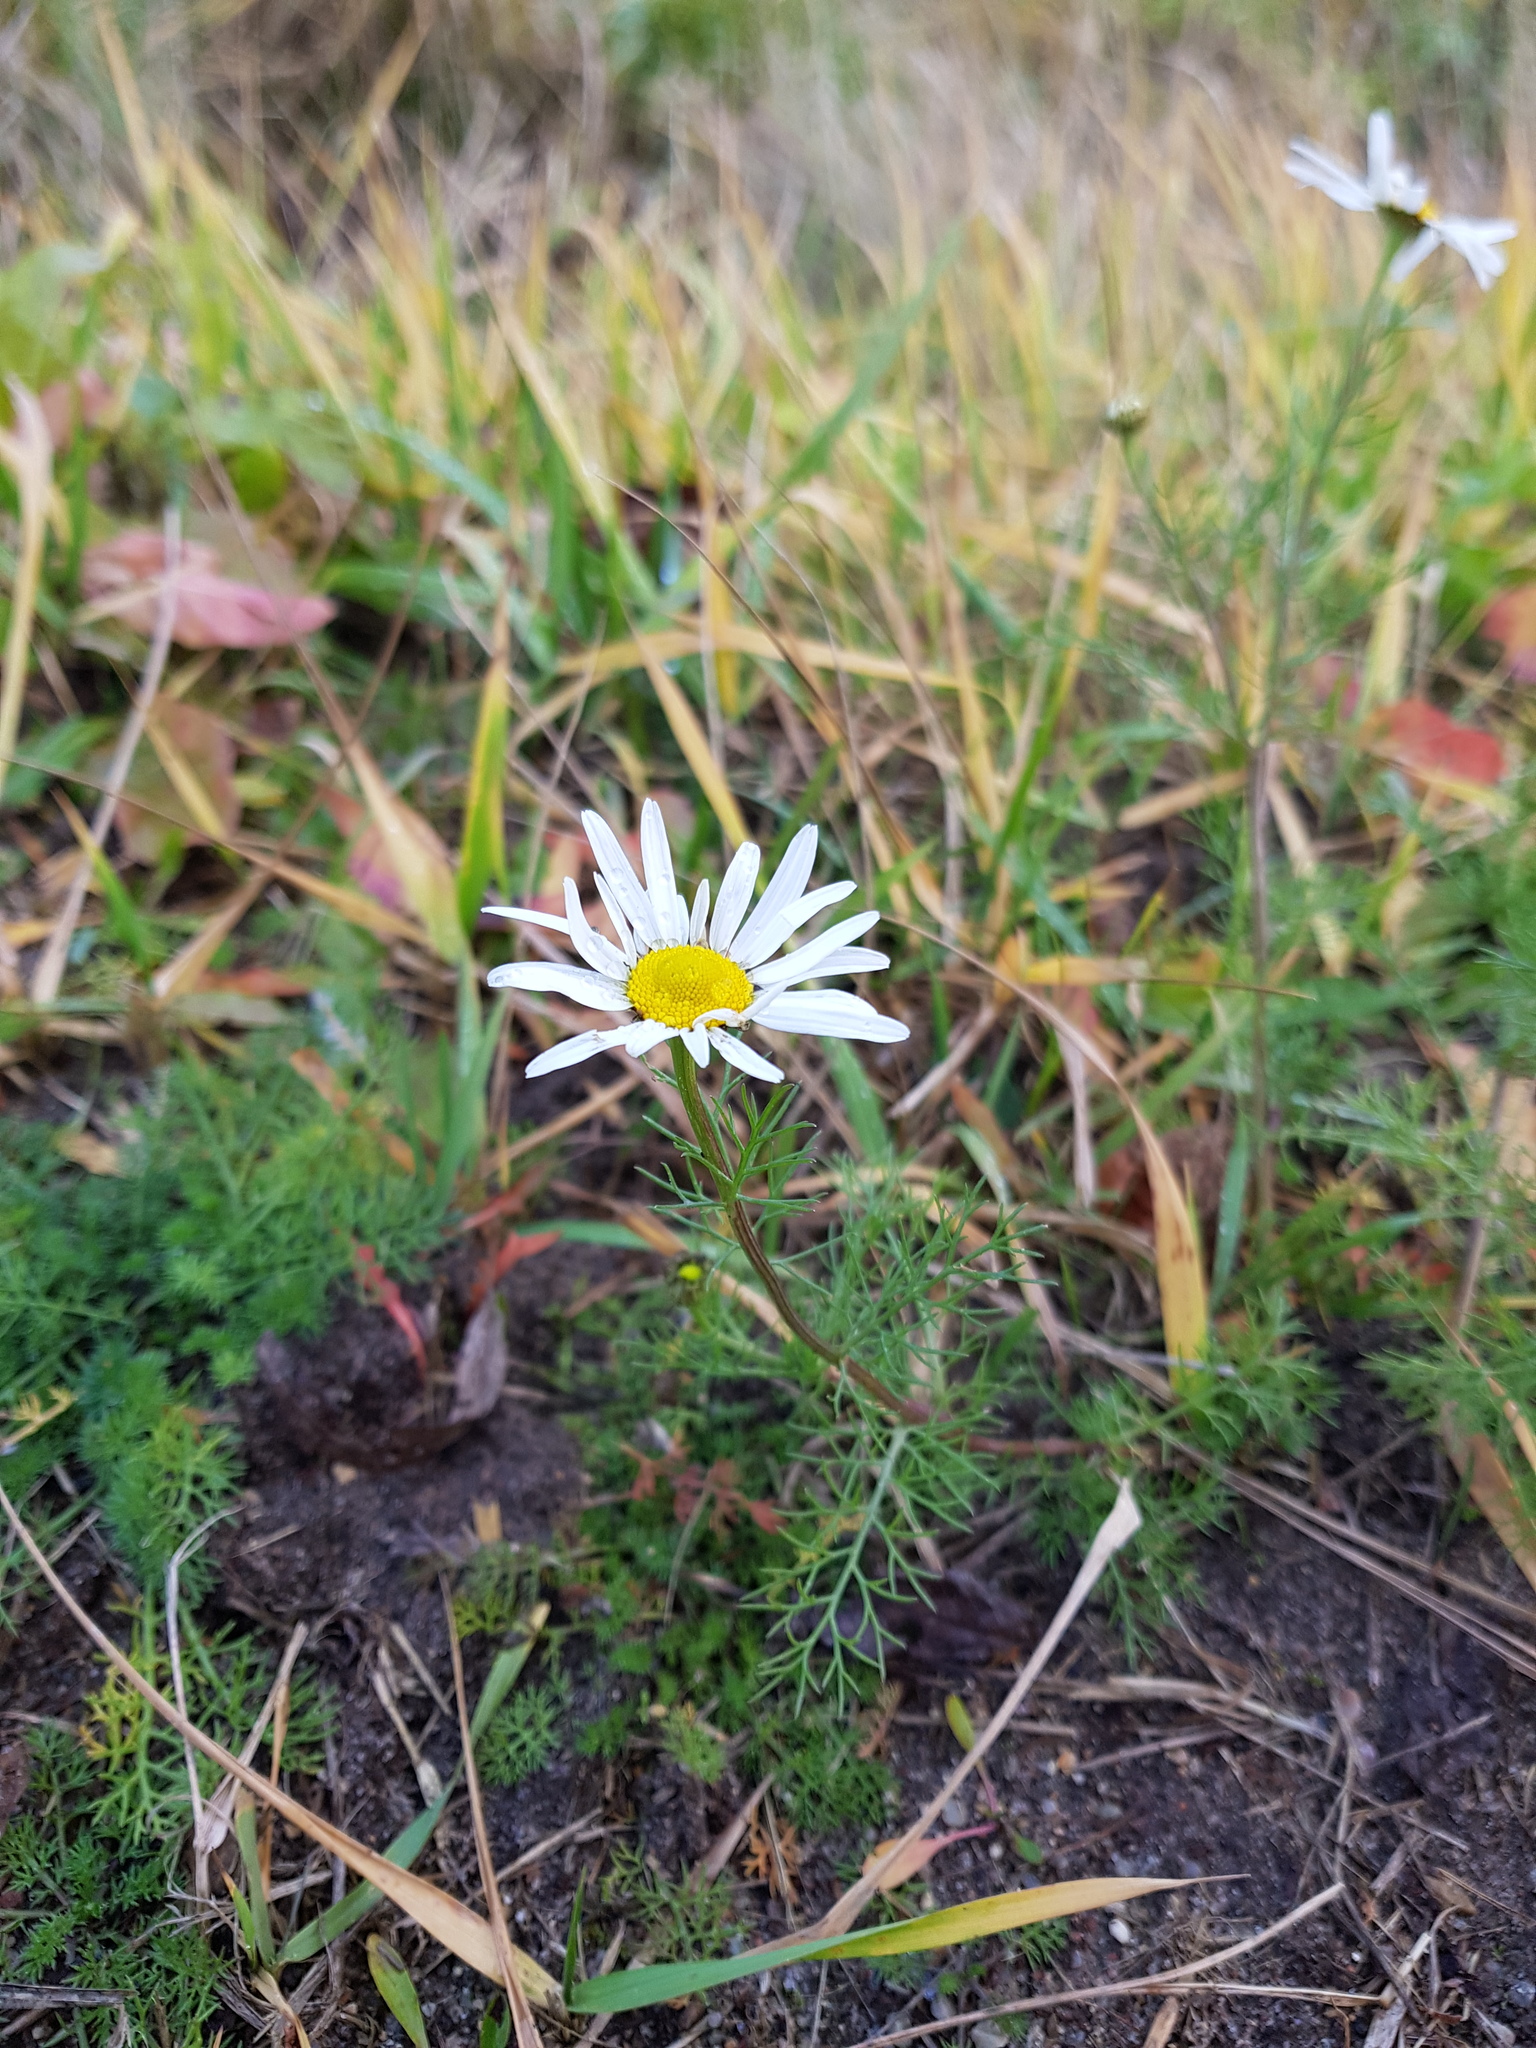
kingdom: Plantae
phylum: Tracheophyta
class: Magnoliopsida
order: Asterales
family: Asteraceae
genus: Tripleurospermum
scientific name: Tripleurospermum inodorum
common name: Scentless mayweed
